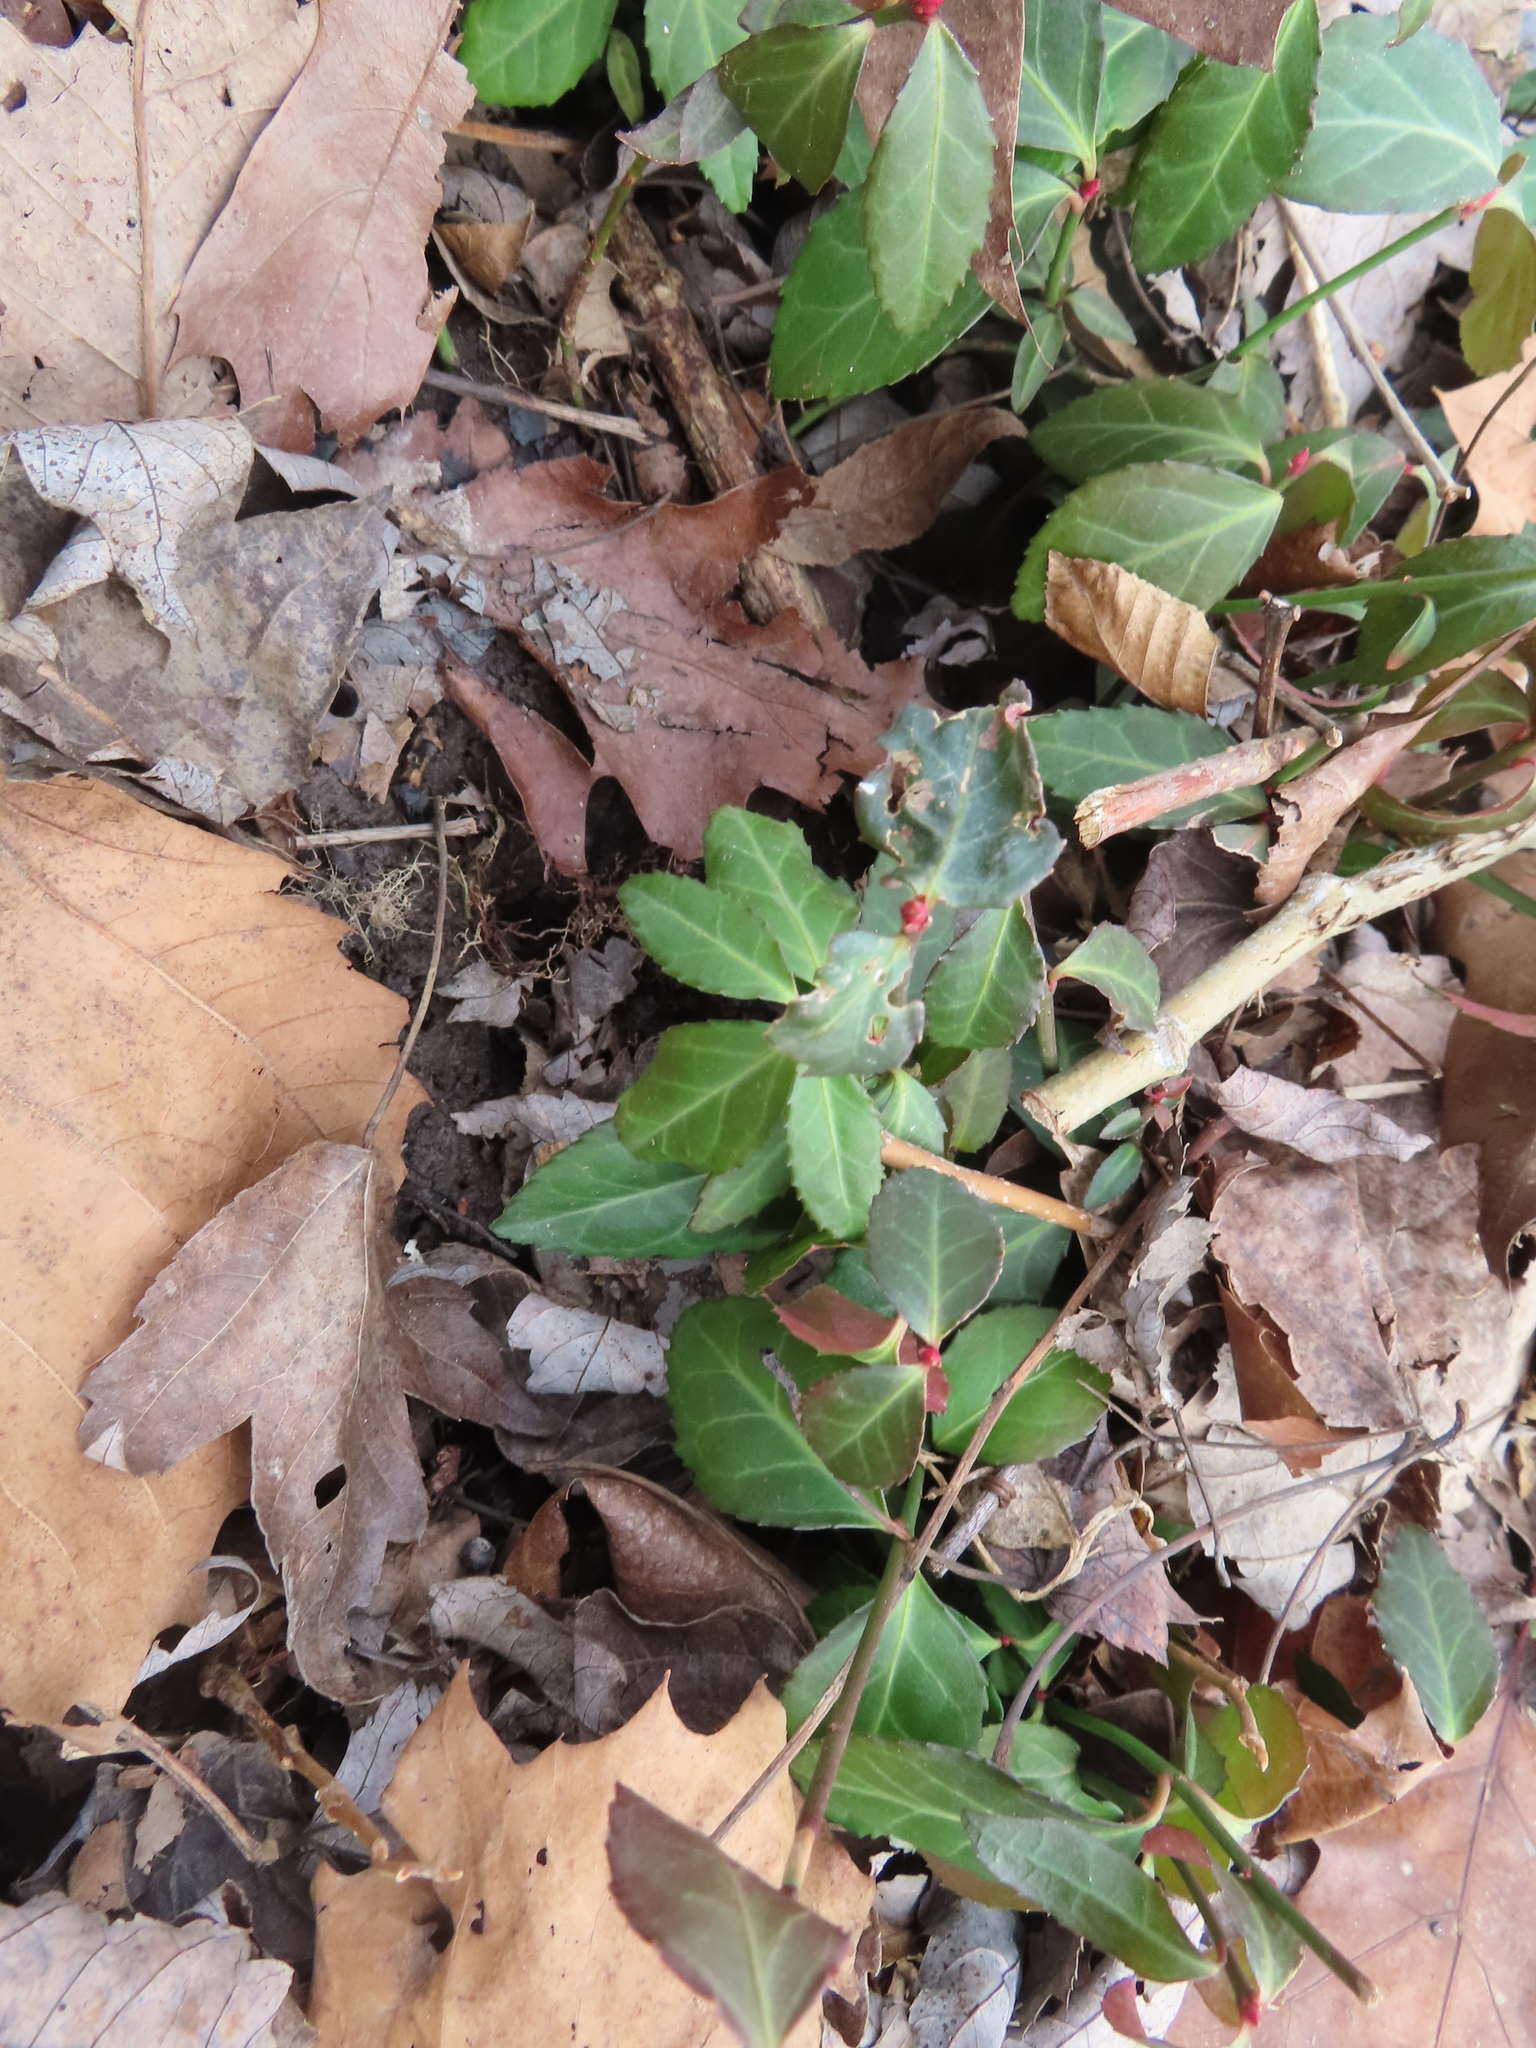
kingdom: Plantae
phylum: Tracheophyta
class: Magnoliopsida
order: Celastrales
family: Celastraceae
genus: Euonymus
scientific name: Euonymus fortunei
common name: Climbing euonymus
